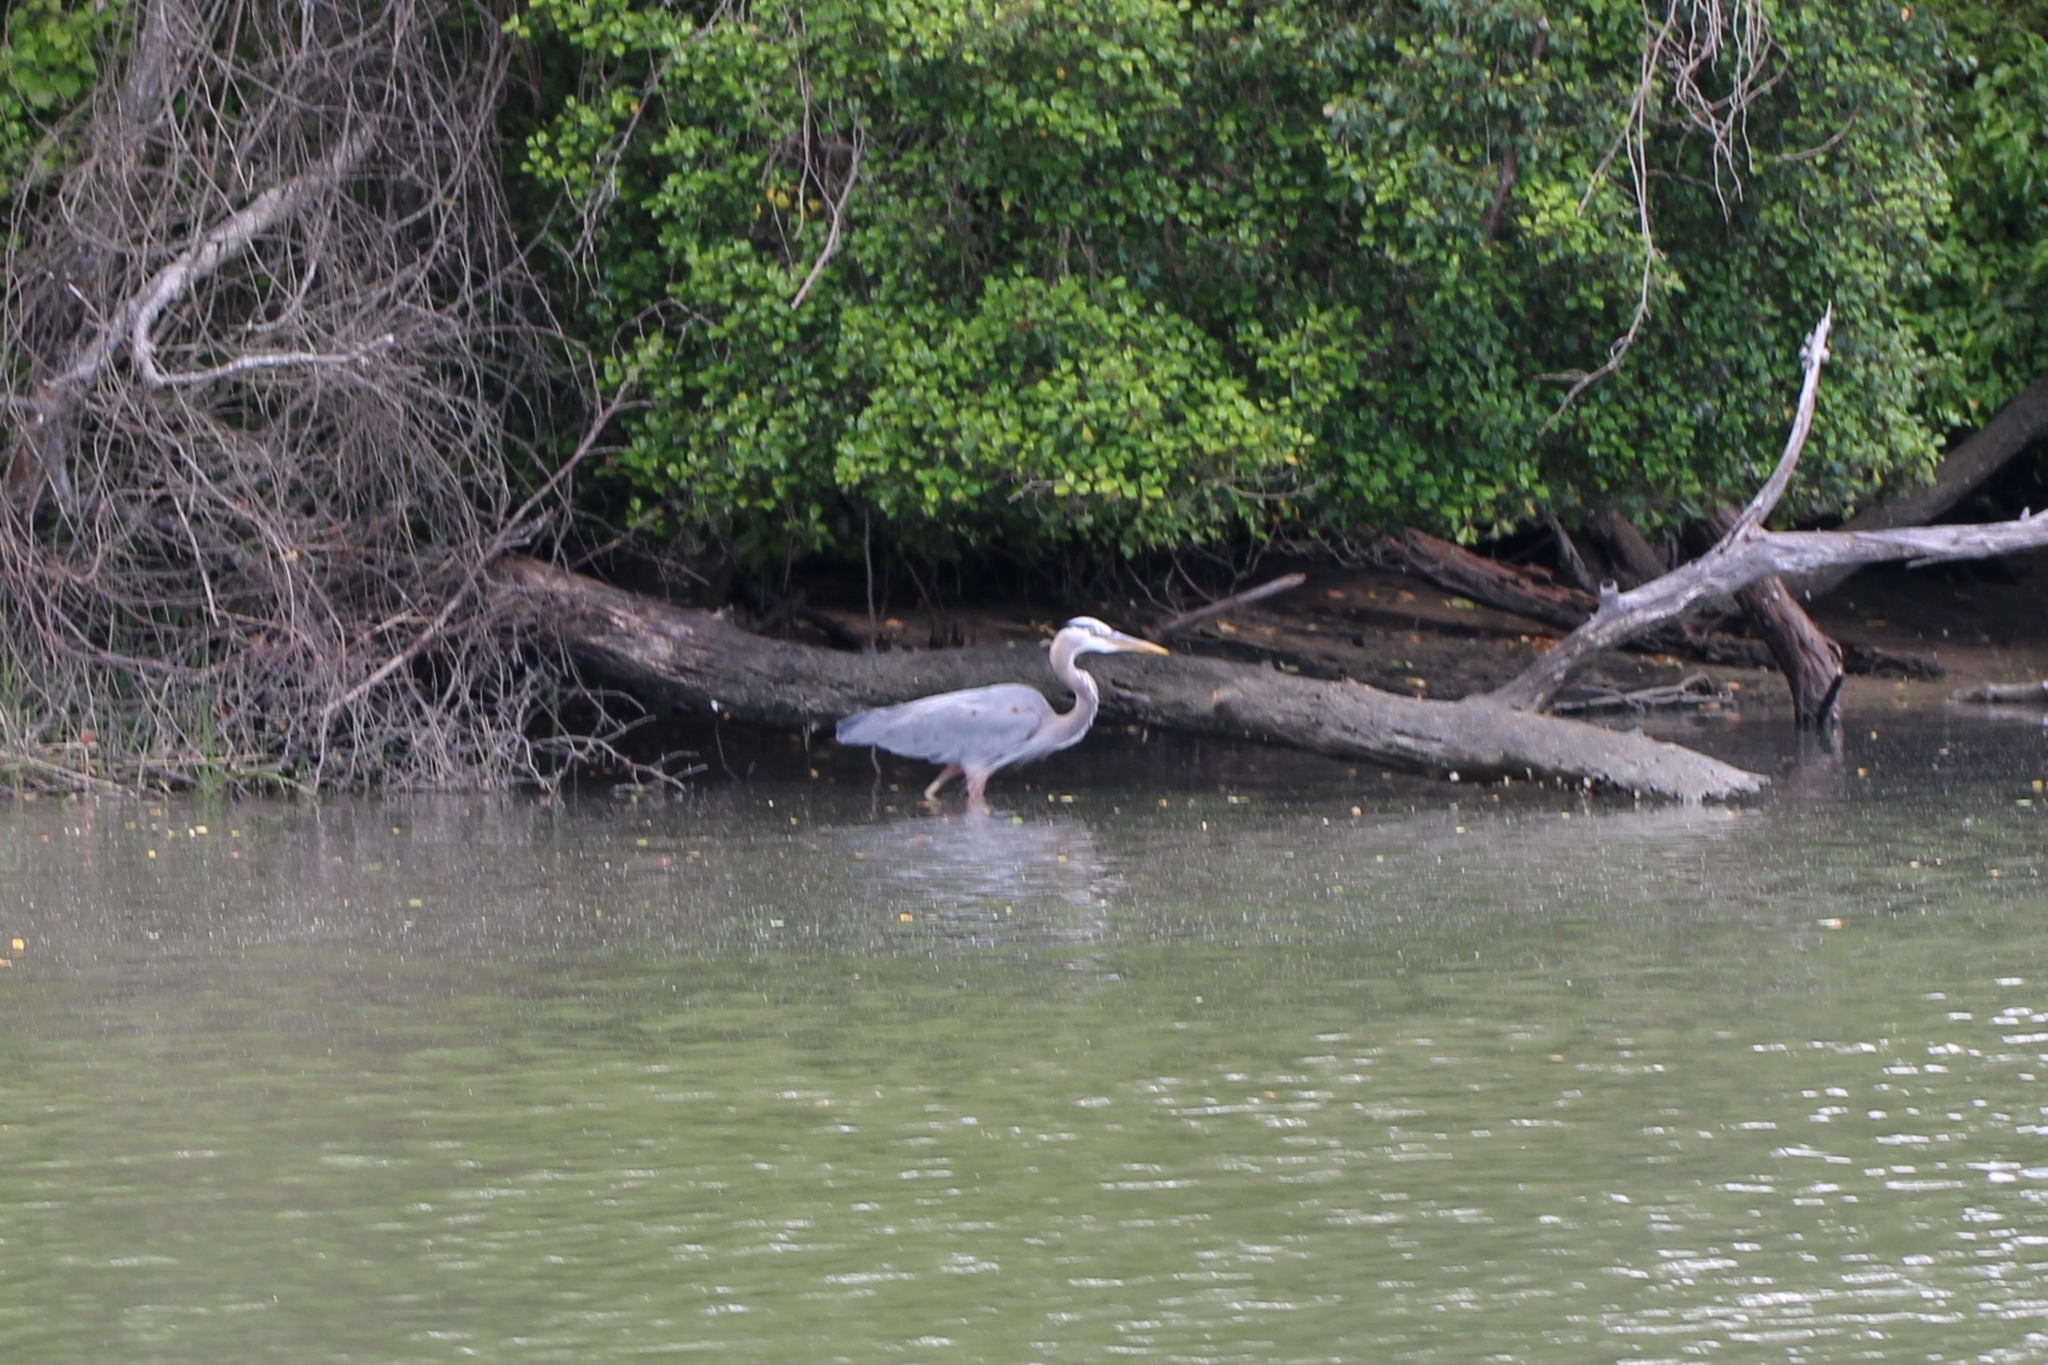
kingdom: Animalia
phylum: Chordata
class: Aves
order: Pelecaniformes
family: Ardeidae
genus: Ardea
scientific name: Ardea herodias
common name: Great blue heron
